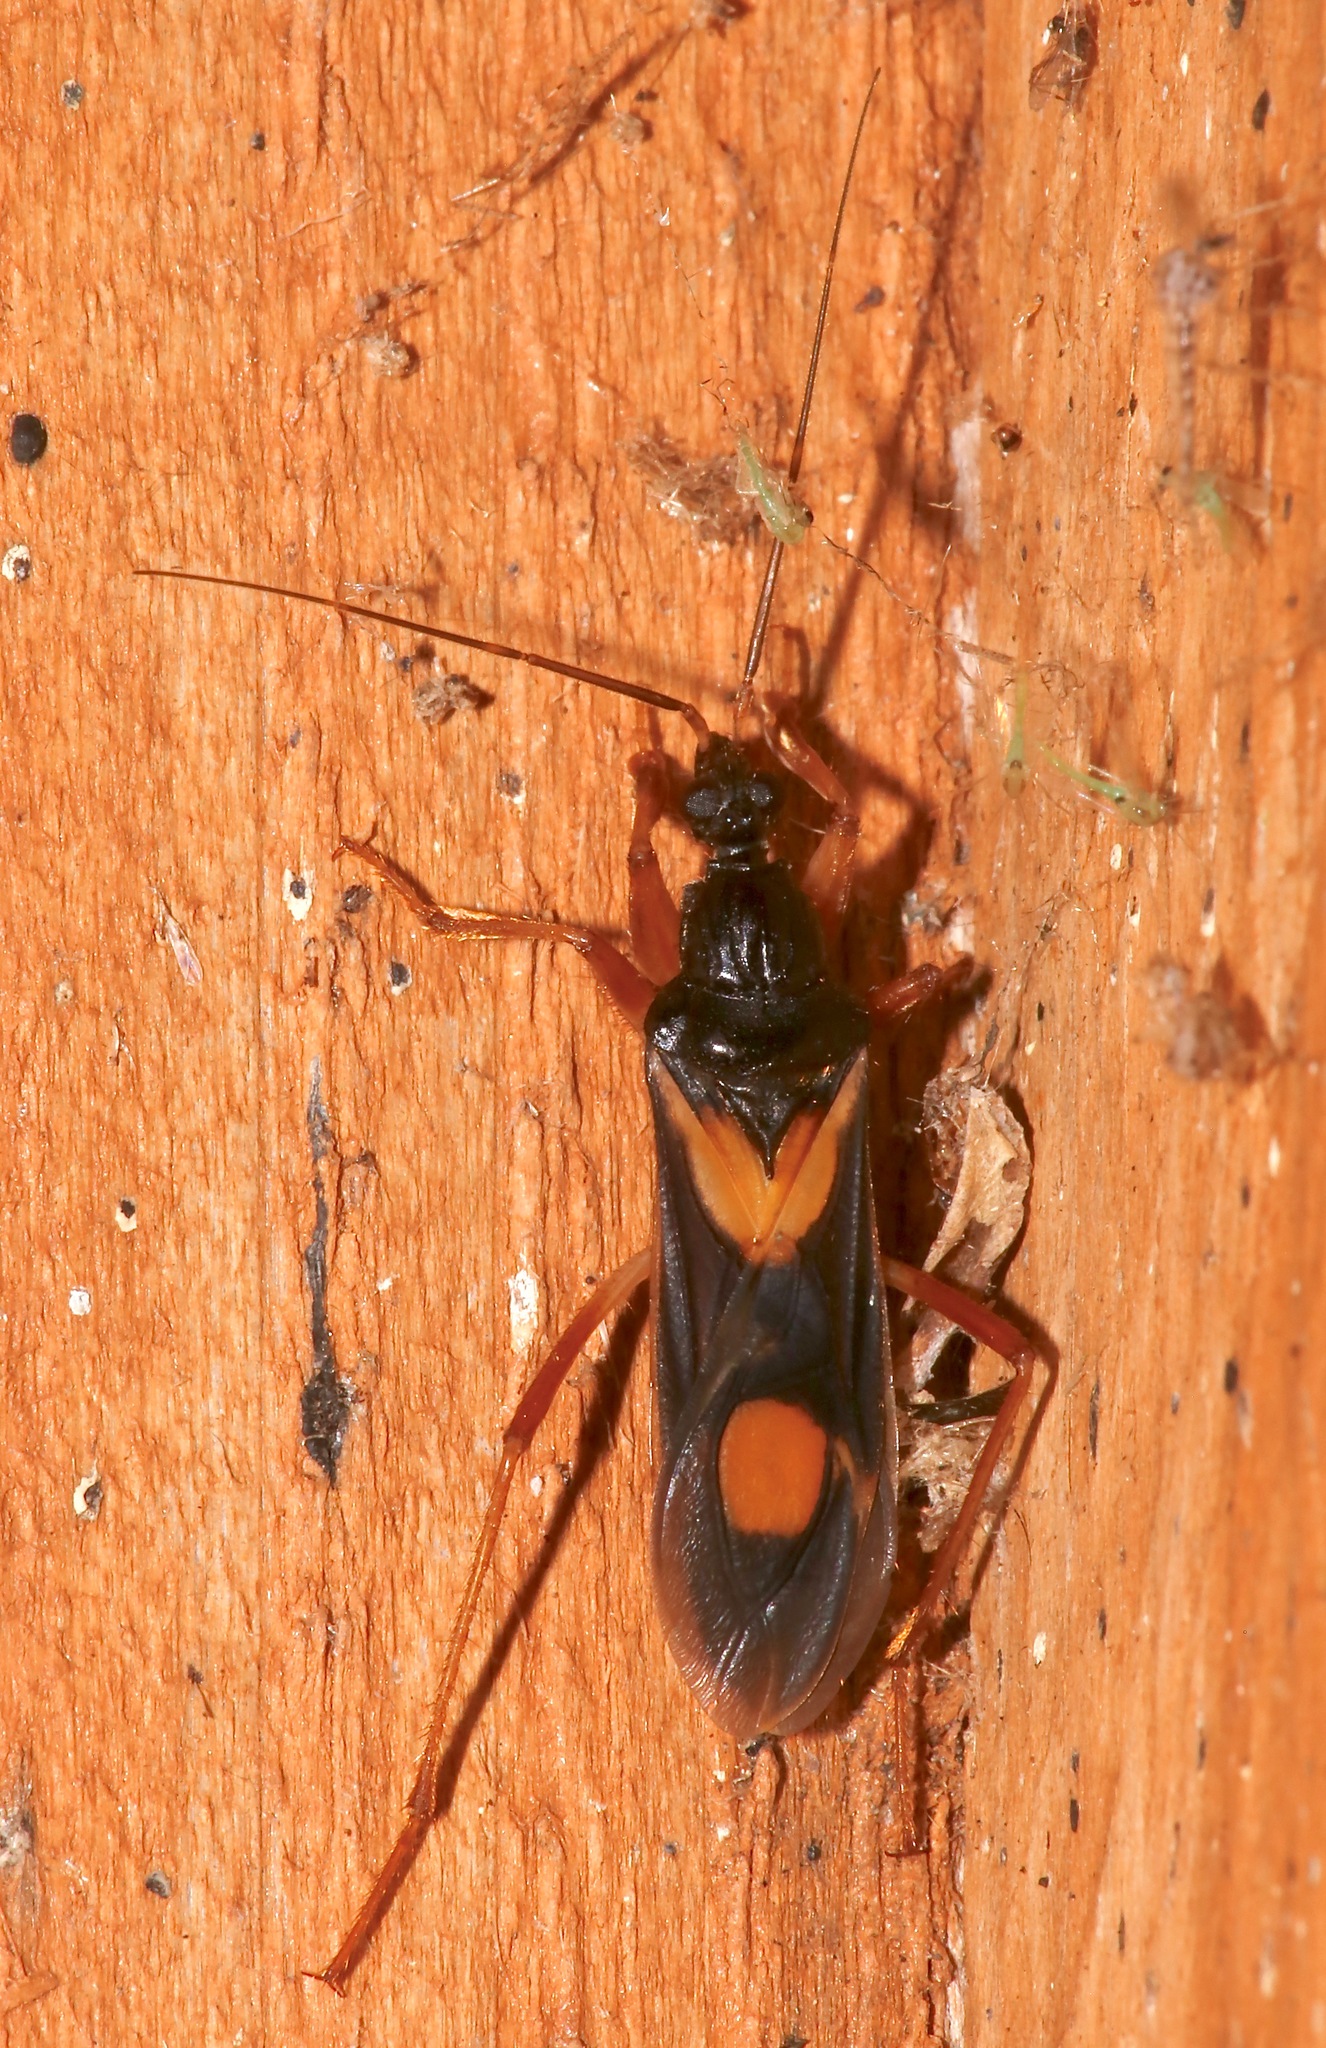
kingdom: Animalia
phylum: Arthropoda
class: Insecta
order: Hemiptera
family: Reduviidae
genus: Rasahus
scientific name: Rasahus hamatus
